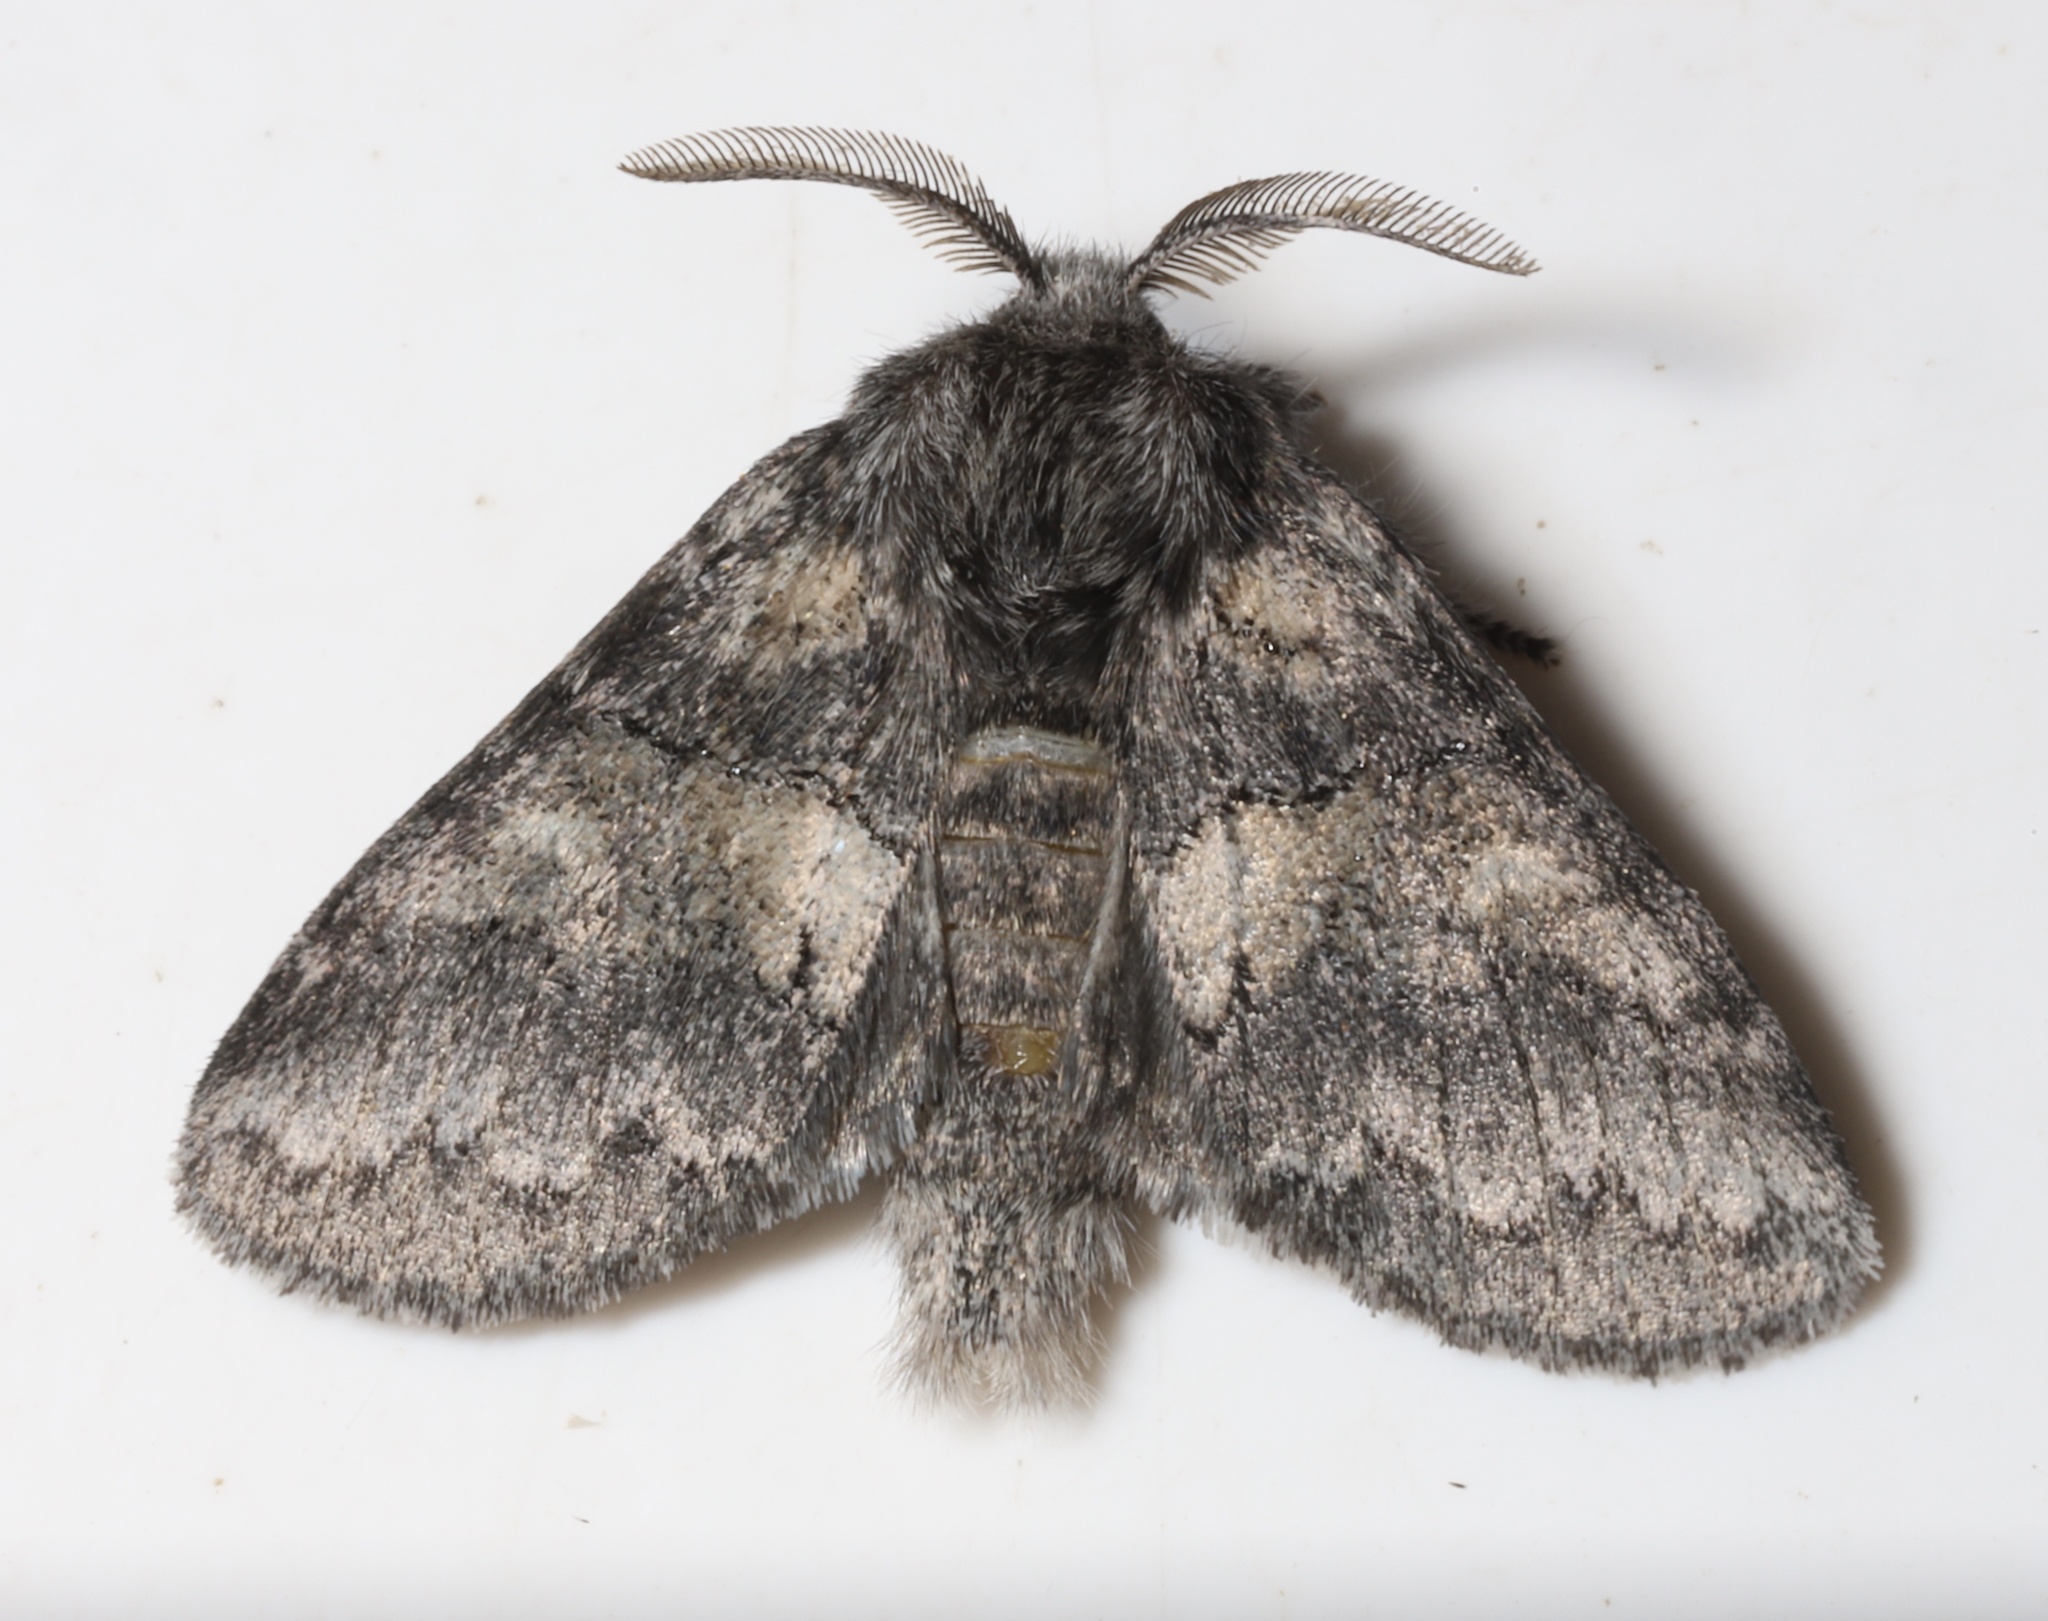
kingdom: Animalia
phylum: Arthropoda
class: Insecta
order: Lepidoptera
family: Notodontidae
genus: Gluphisia
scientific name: Gluphisia septentrionis
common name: Common gluphisia
